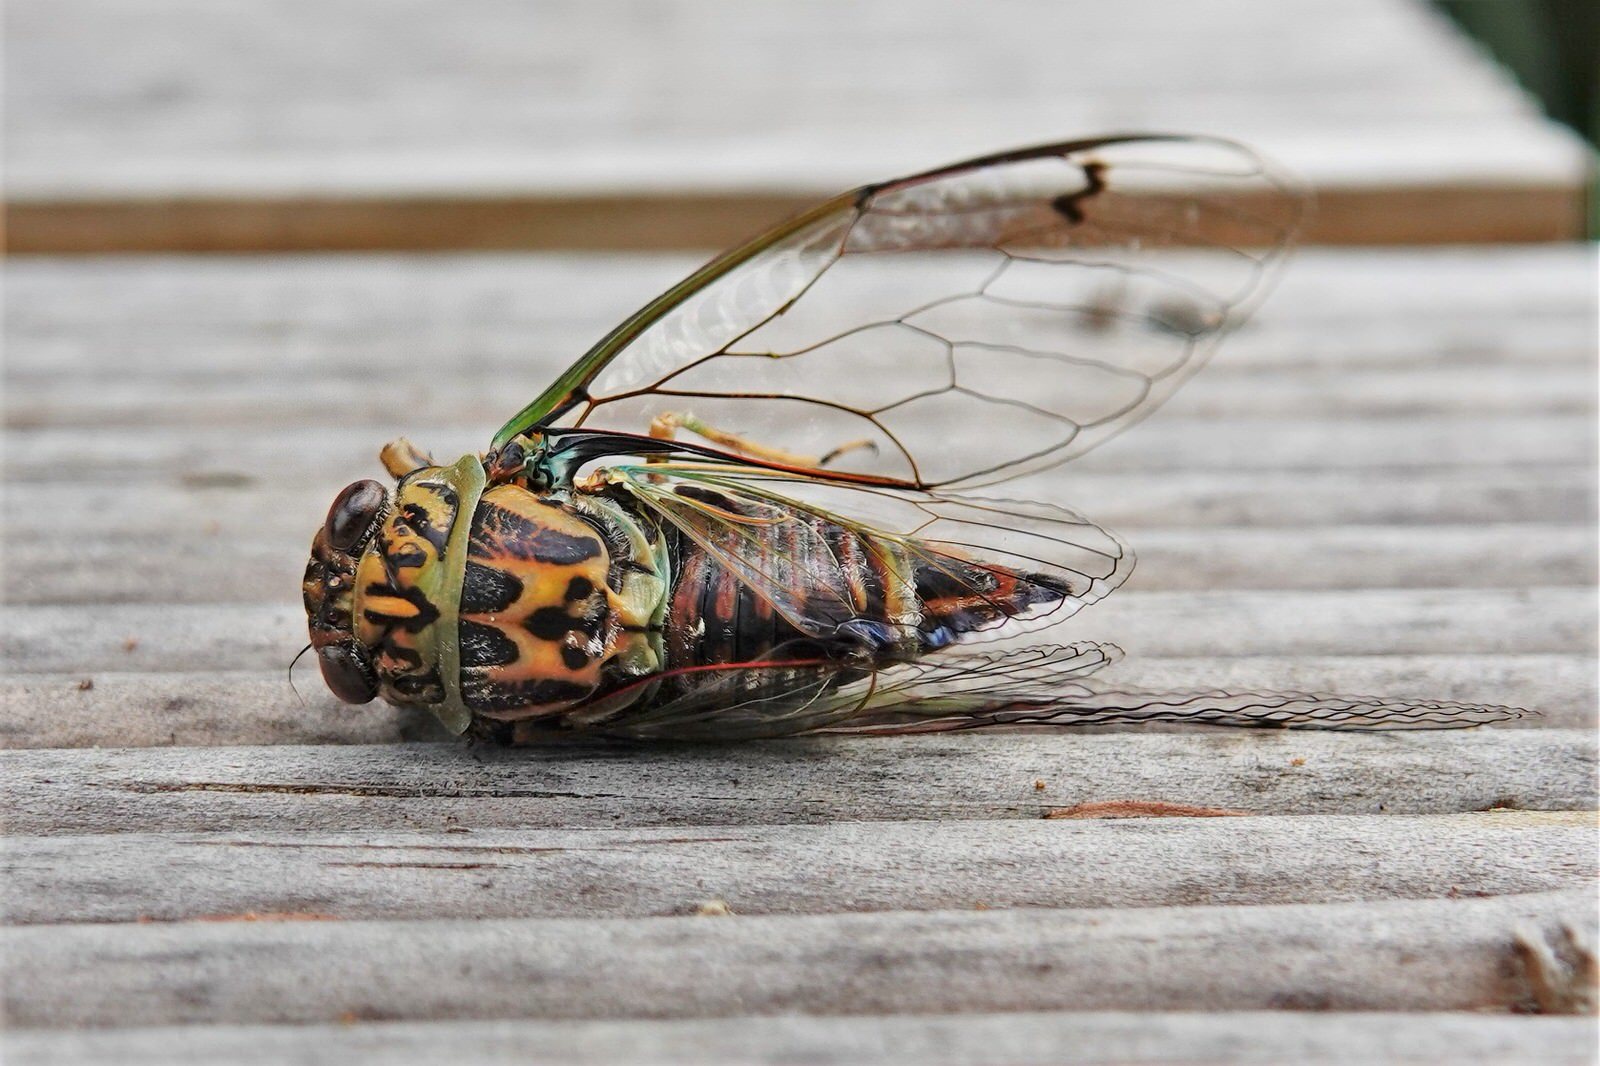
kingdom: Animalia
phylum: Arthropoda
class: Insecta
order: Hemiptera
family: Cicadidae
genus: Amphipsalta
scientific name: Amphipsalta zelandica
